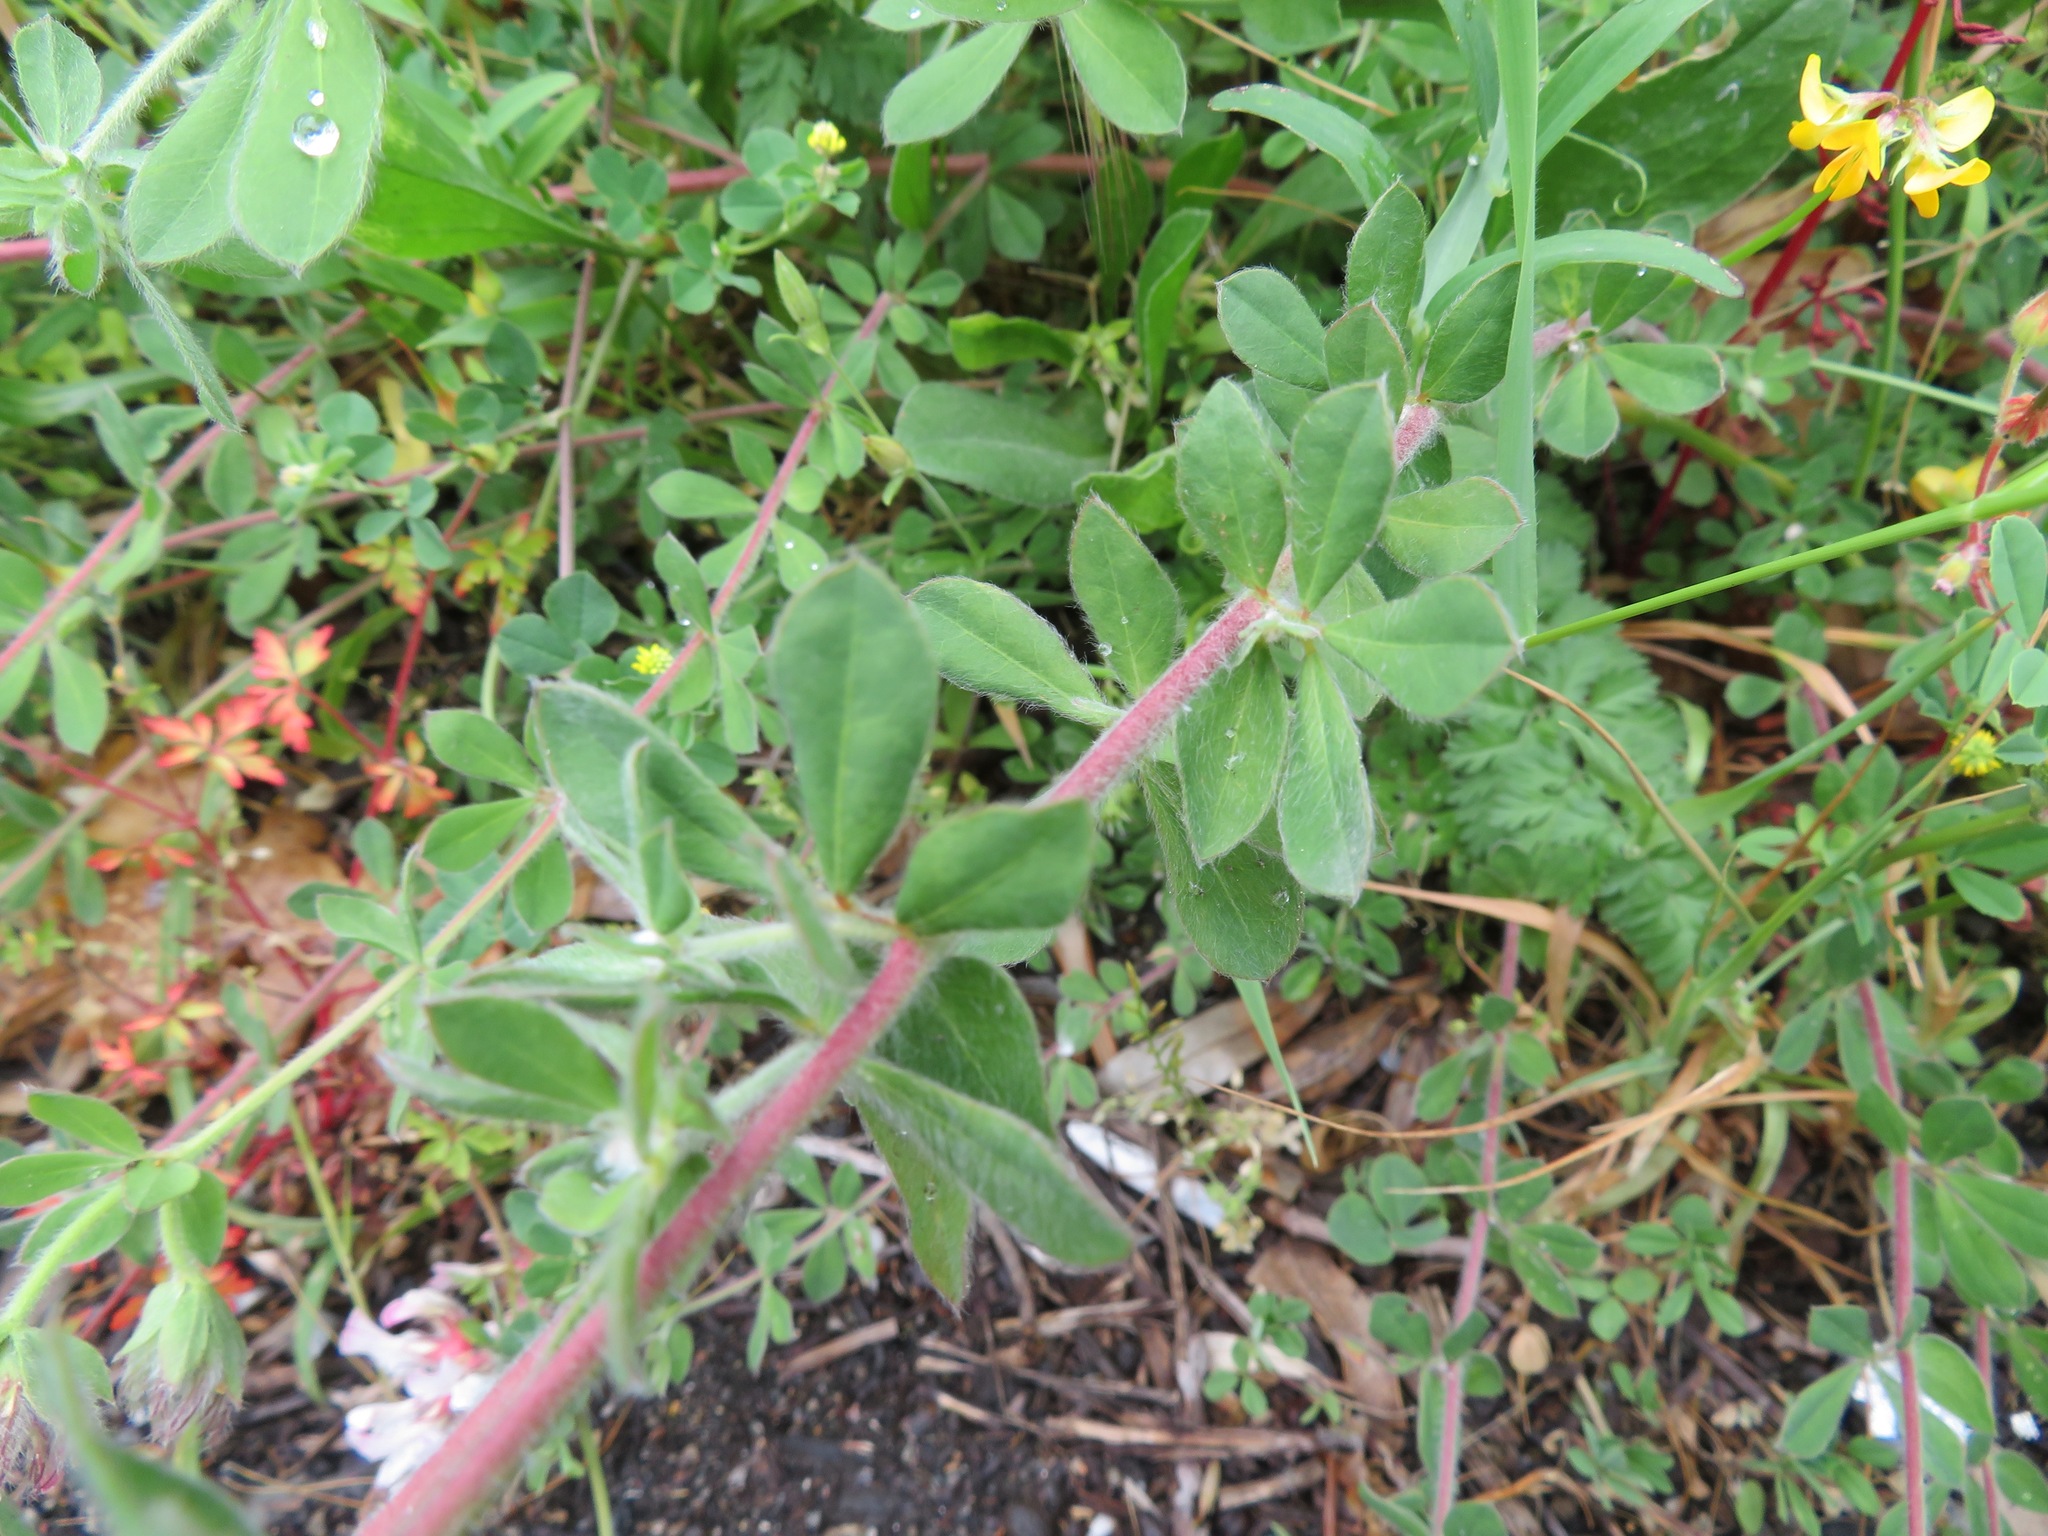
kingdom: Plantae
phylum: Tracheophyta
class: Magnoliopsida
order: Fabales
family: Fabaceae
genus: Lotus
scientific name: Lotus hirsutus
